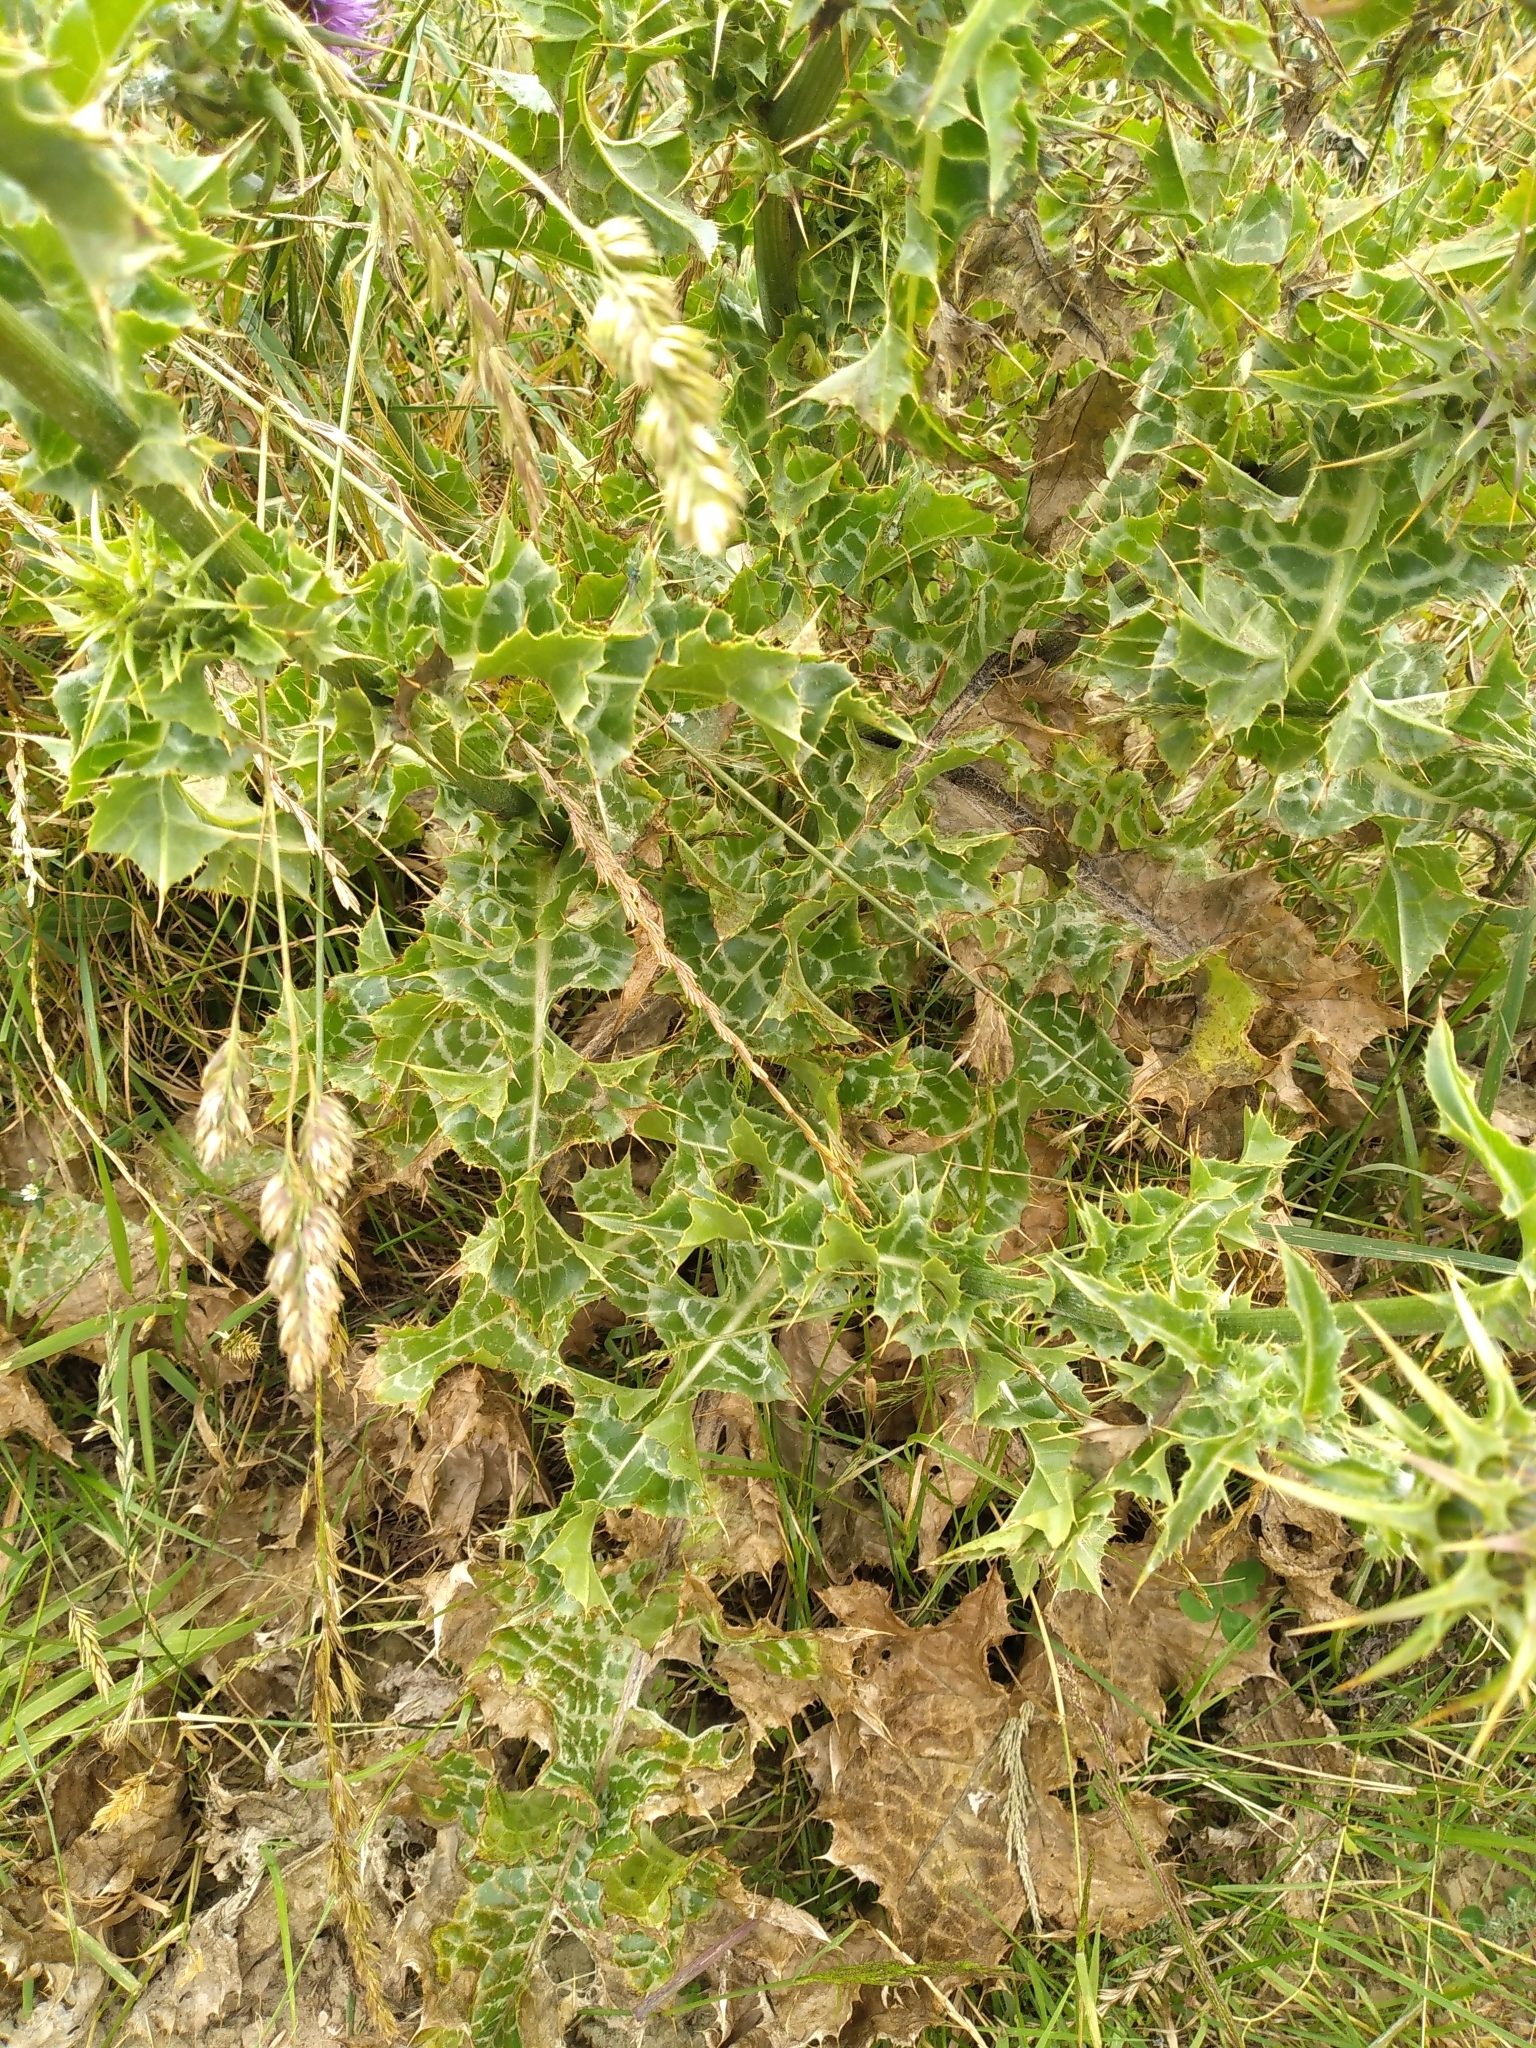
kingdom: Plantae
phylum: Tracheophyta
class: Magnoliopsida
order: Asterales
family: Asteraceae
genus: Silybum
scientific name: Silybum marianum
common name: Milk thistle
